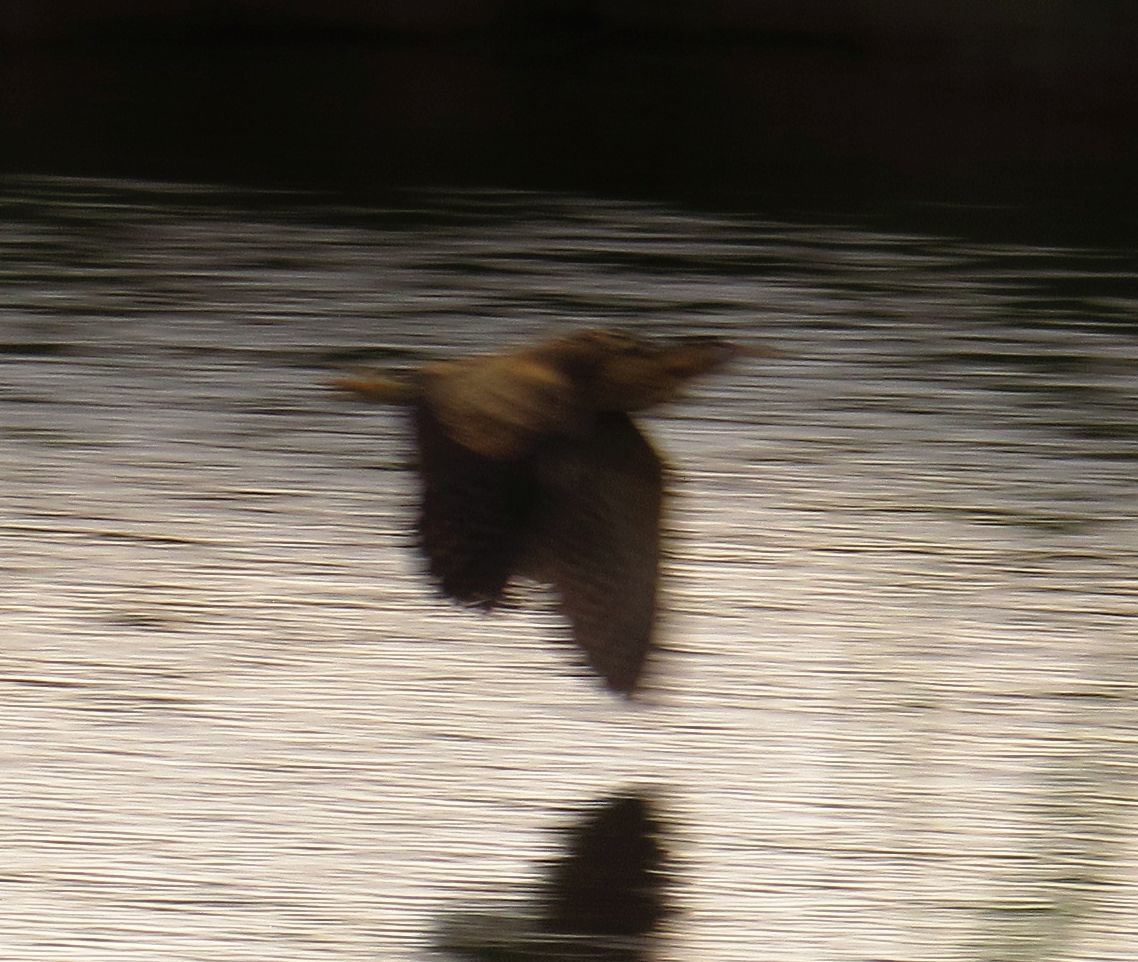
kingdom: Animalia
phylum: Chordata
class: Aves
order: Pelecaniformes
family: Ardeidae
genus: Botaurus
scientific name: Botaurus stellaris
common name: Eurasian bittern
